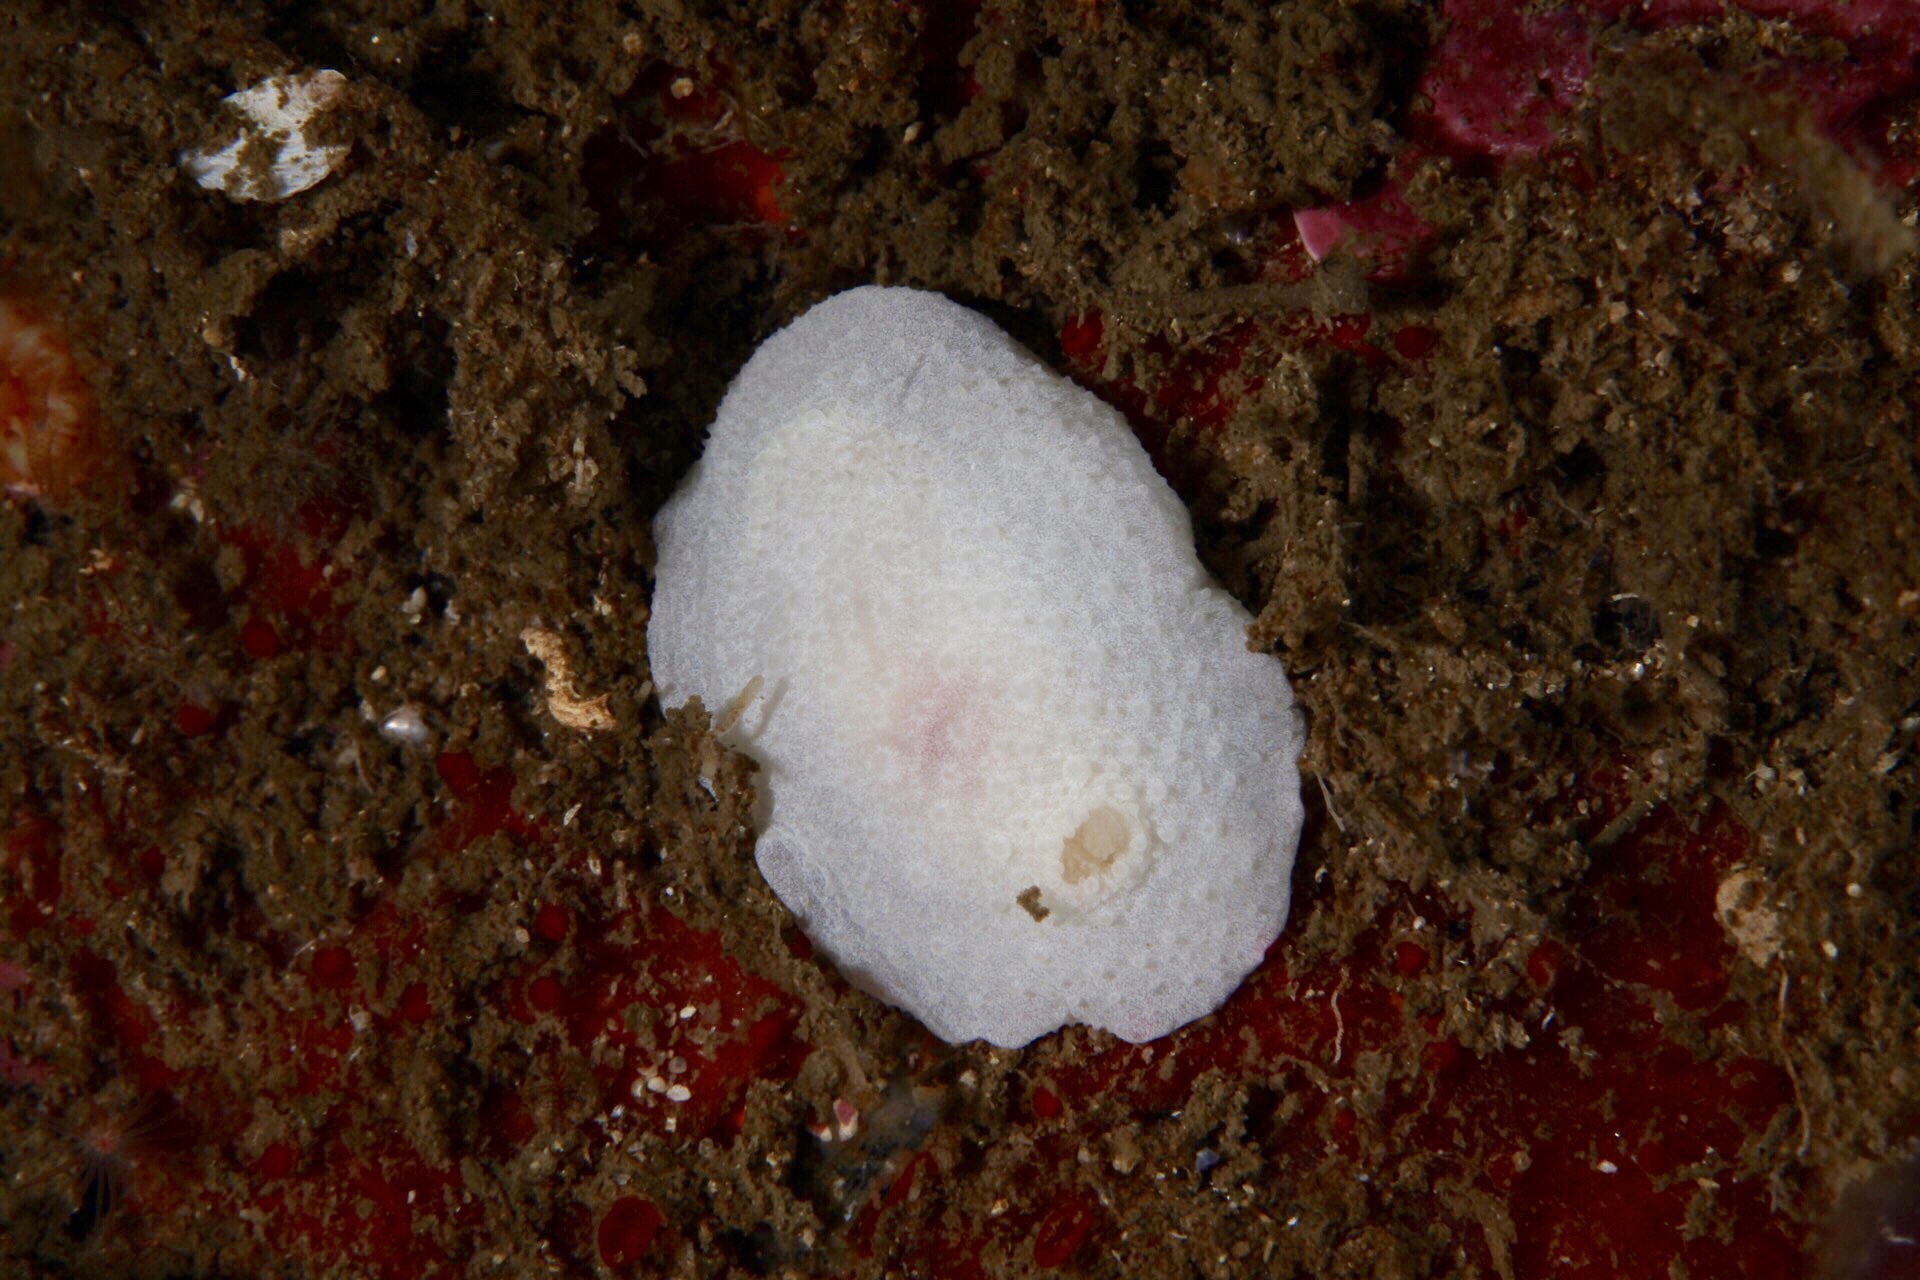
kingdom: Animalia
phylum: Mollusca
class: Gastropoda
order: Nudibranchia
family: Cadlinidae
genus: Aldisa
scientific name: Aldisa zetlandica
